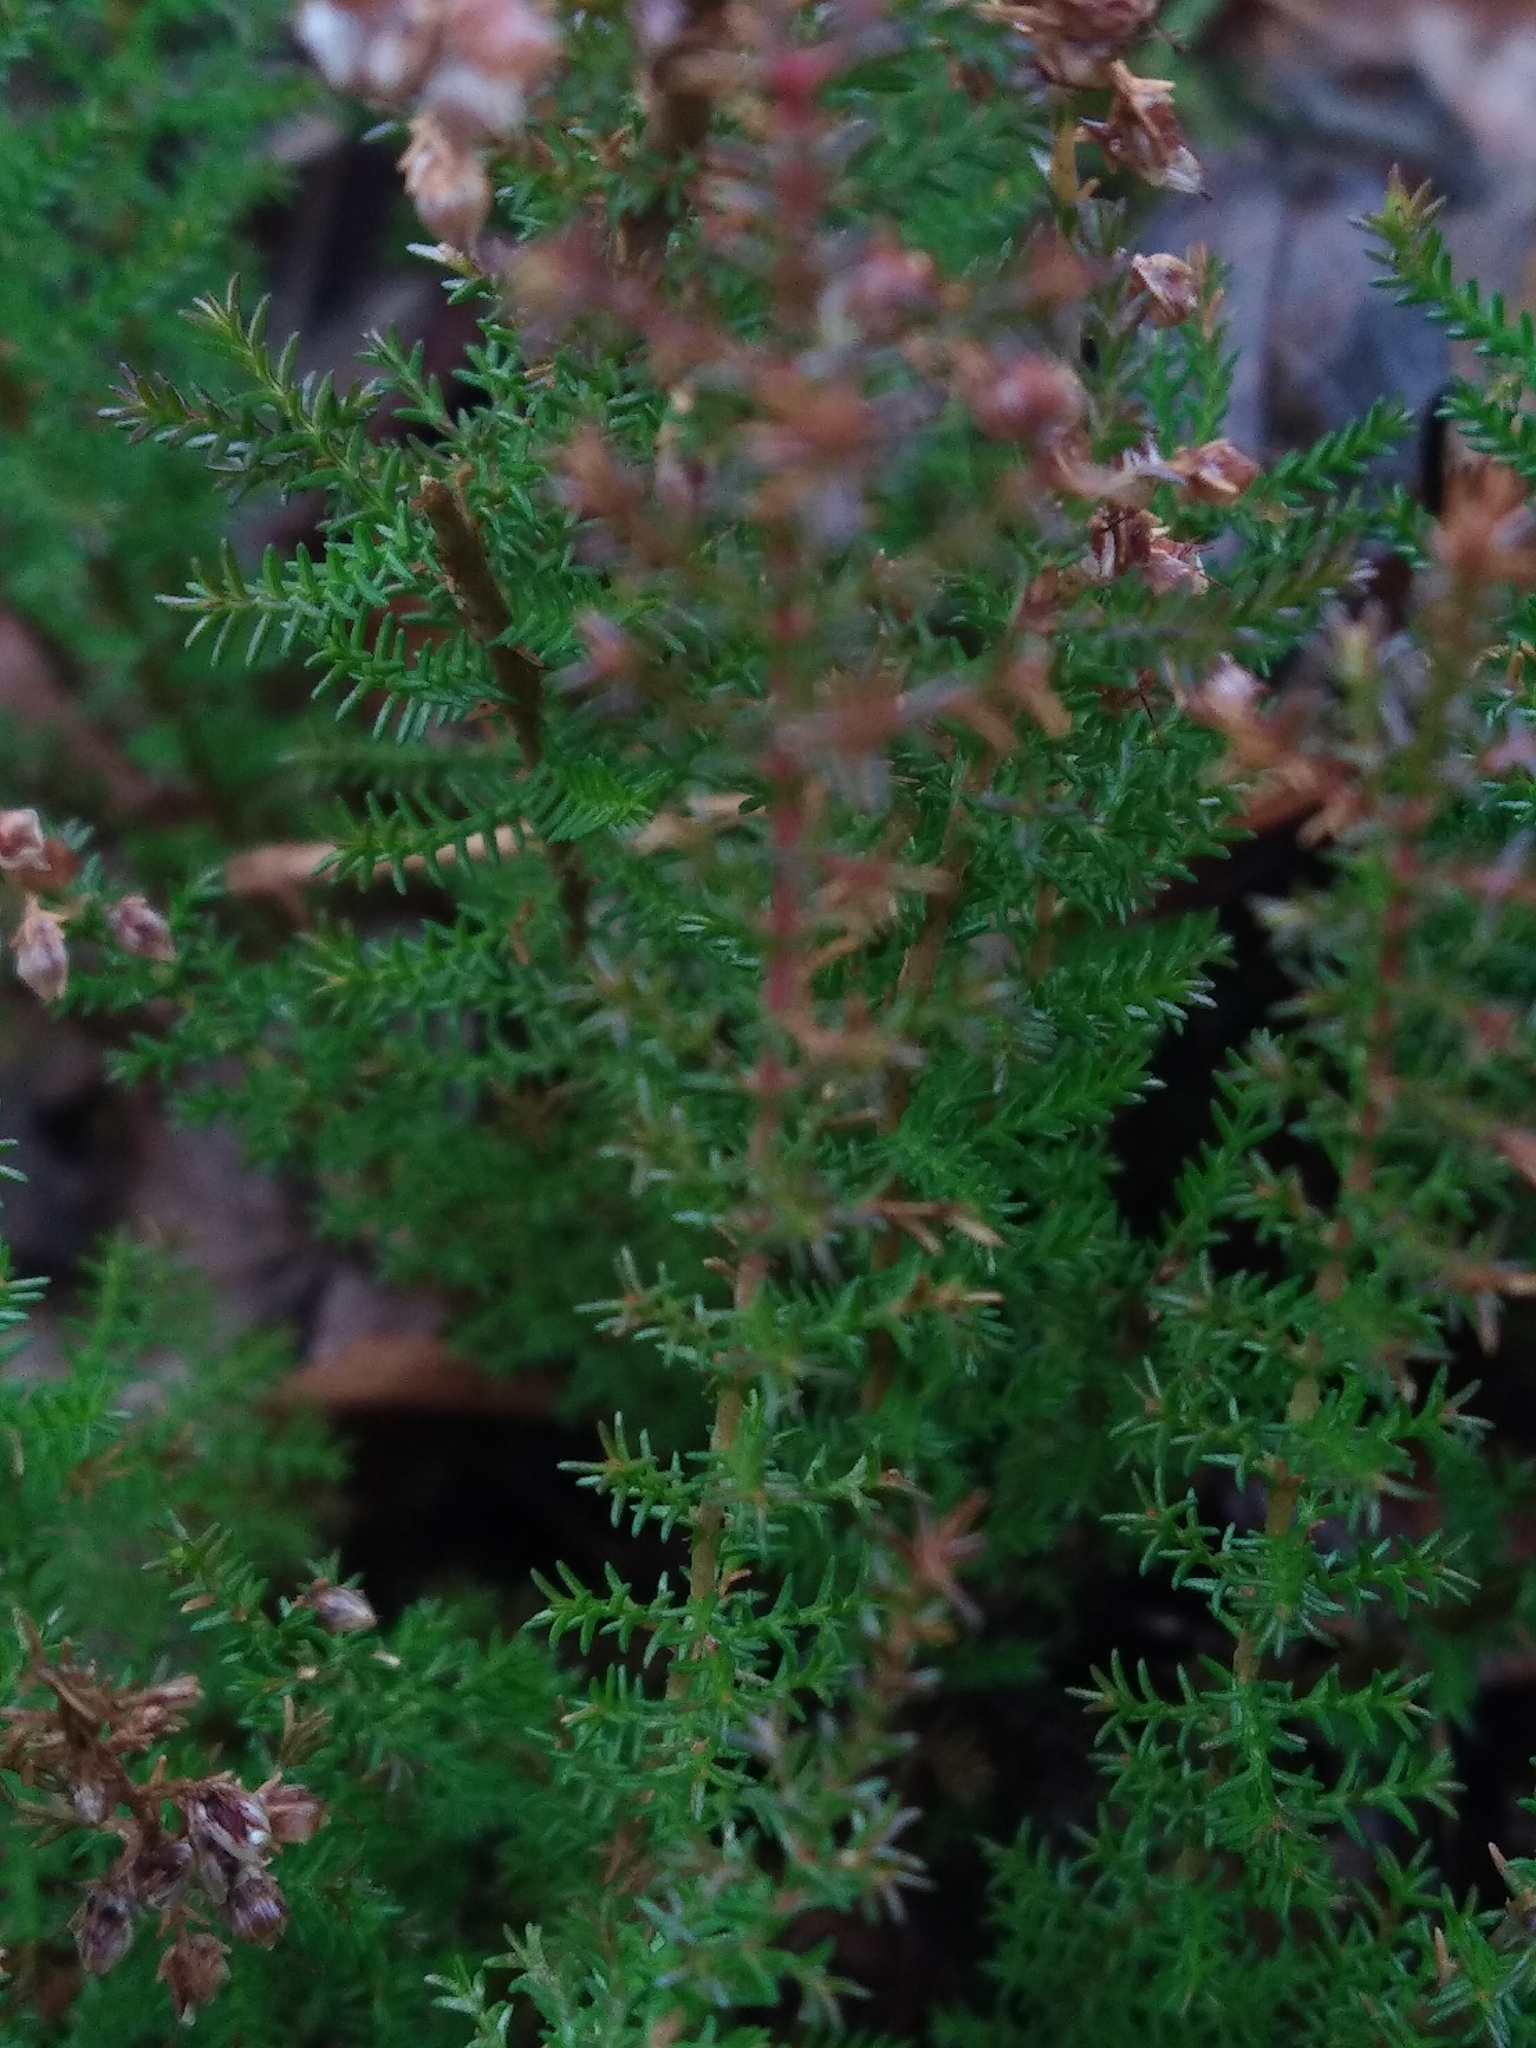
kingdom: Plantae
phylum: Tracheophyta
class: Magnoliopsida
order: Ericales
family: Ericaceae
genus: Calluna
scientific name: Calluna vulgaris
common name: Heather
